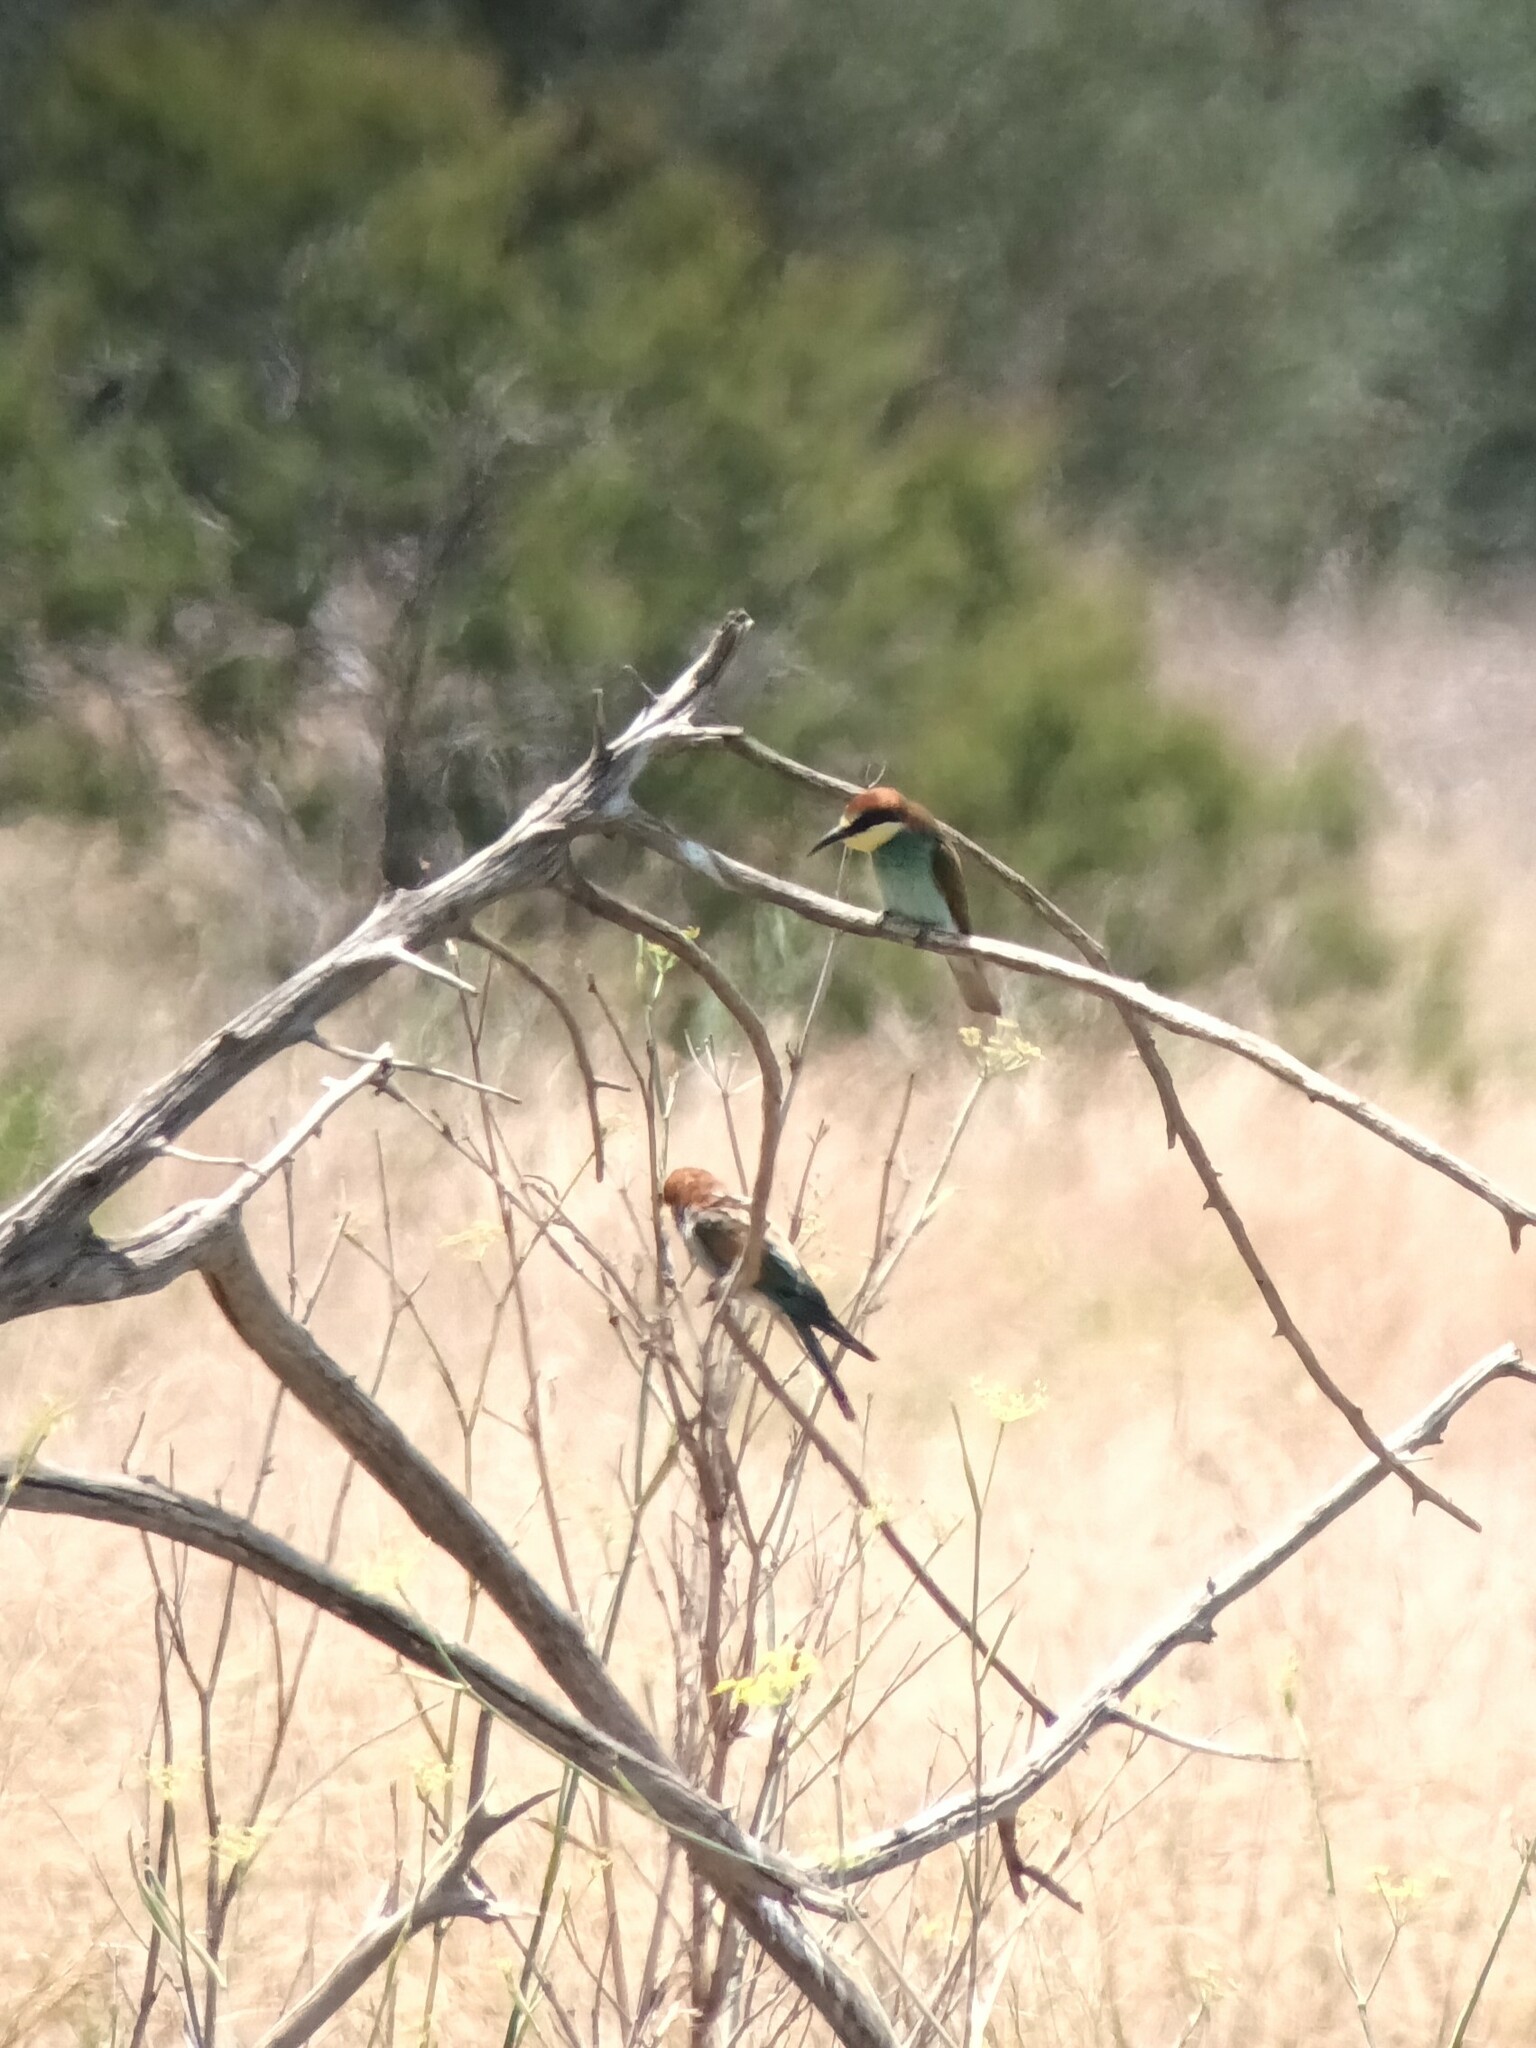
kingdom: Animalia
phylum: Chordata
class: Aves
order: Coraciiformes
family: Meropidae
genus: Merops
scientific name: Merops apiaster
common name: European bee-eater
